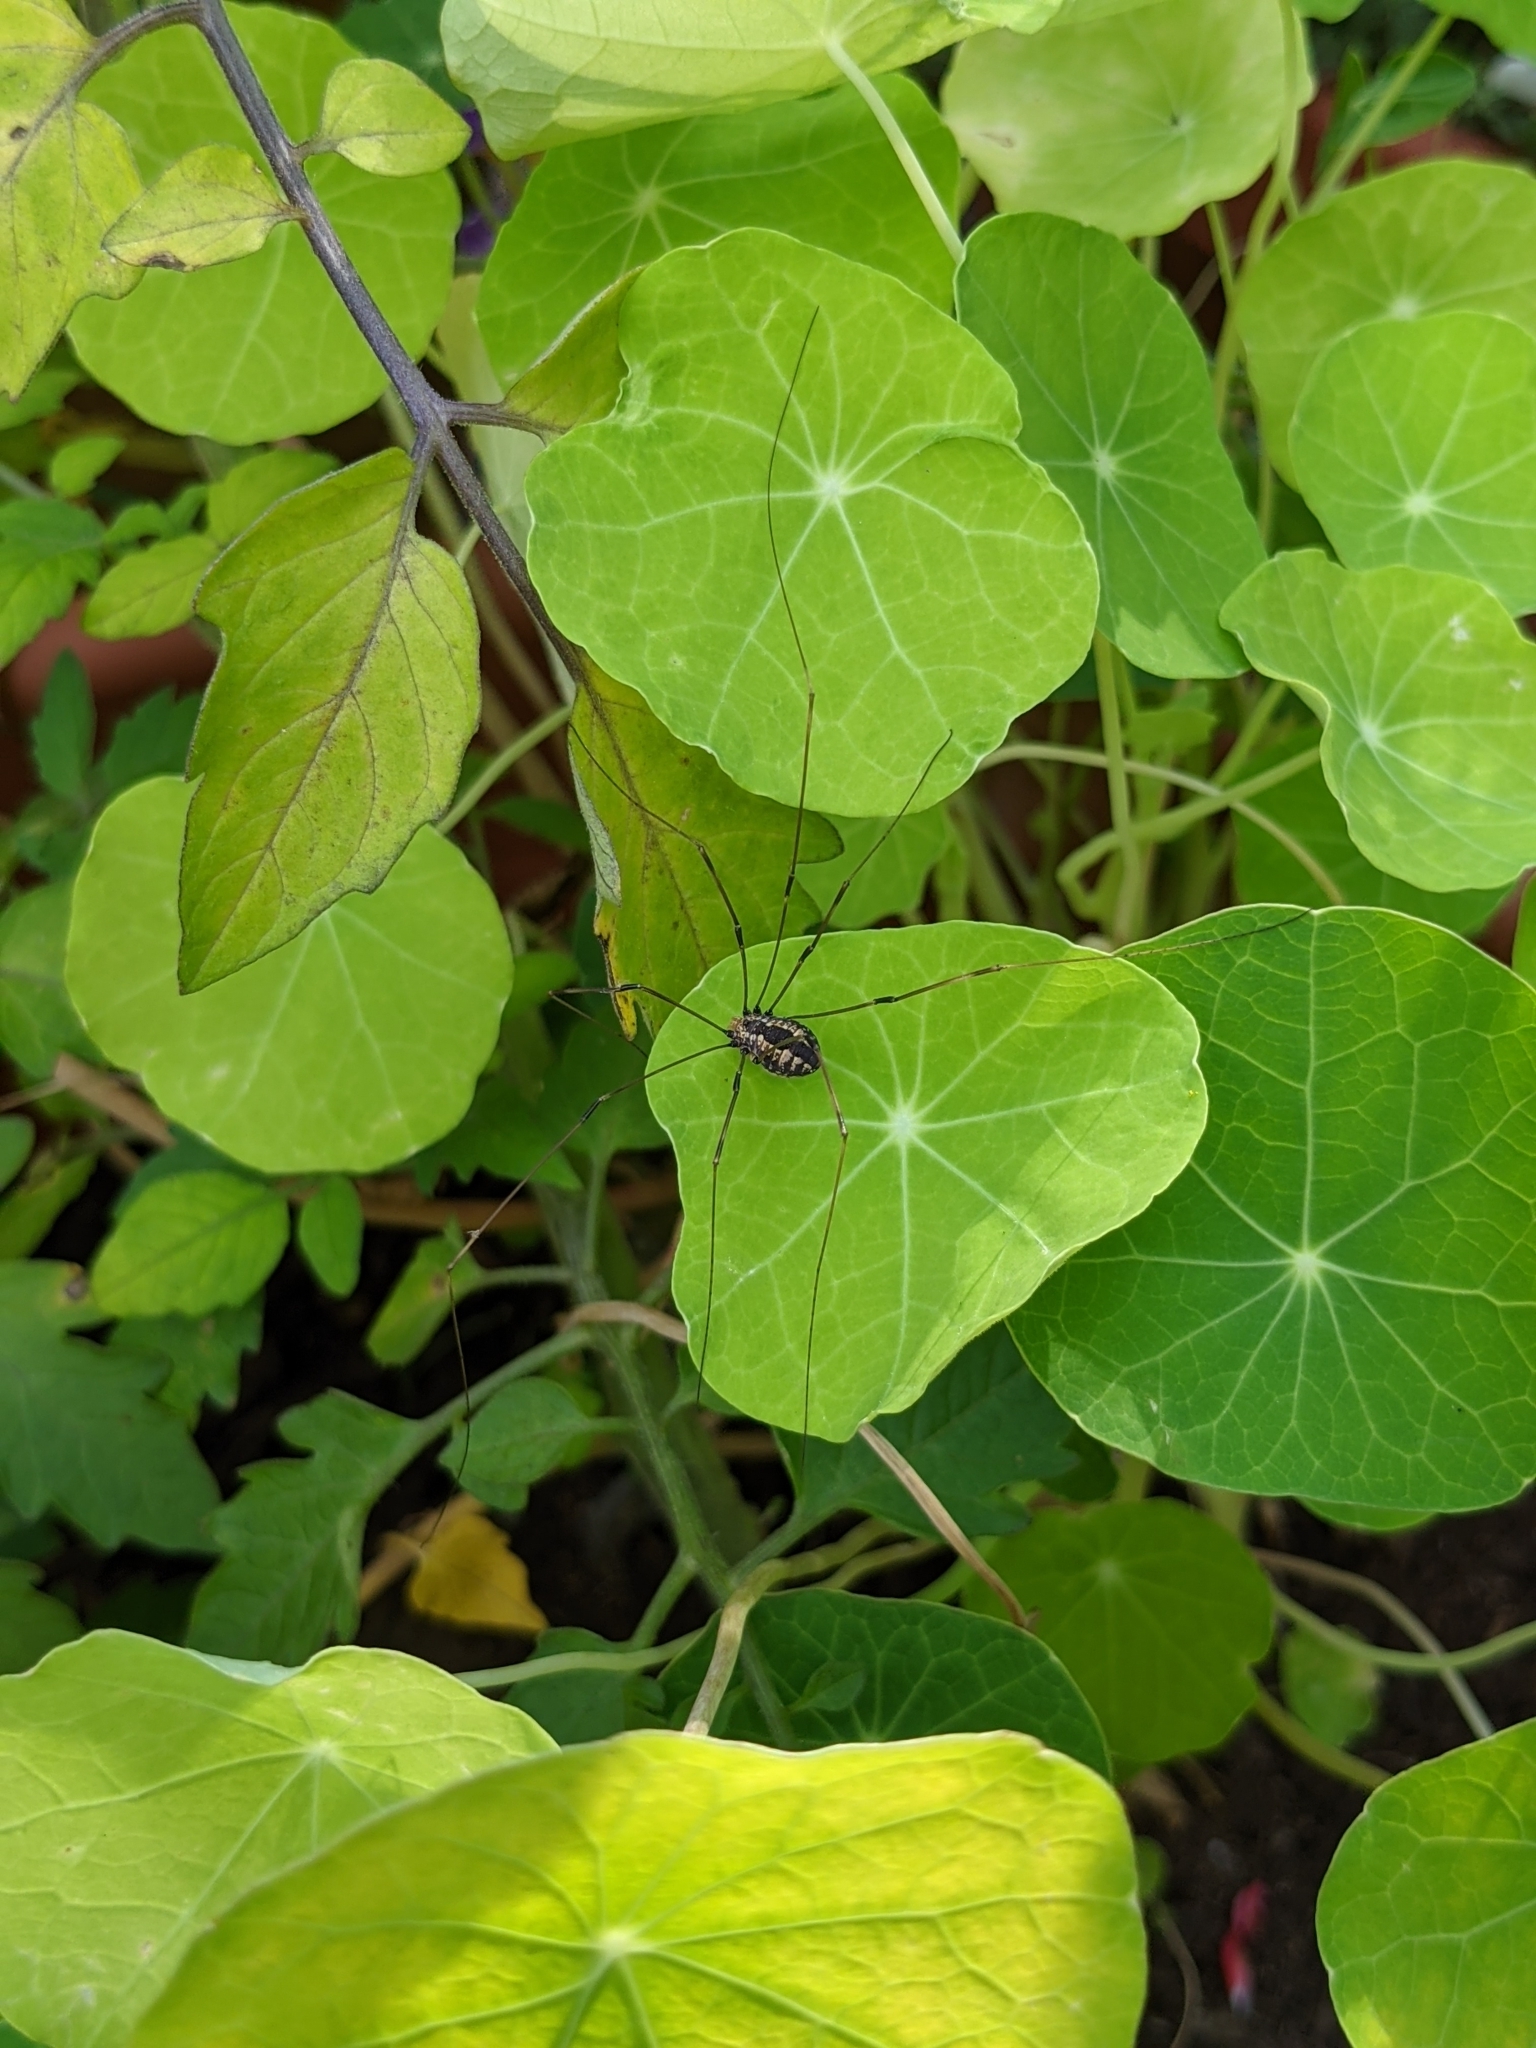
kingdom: Animalia
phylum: Arthropoda
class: Arachnida
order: Opiliones
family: Sclerosomatidae
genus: Leiobunum
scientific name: Leiobunum vittatum
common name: Eastern harvestman
